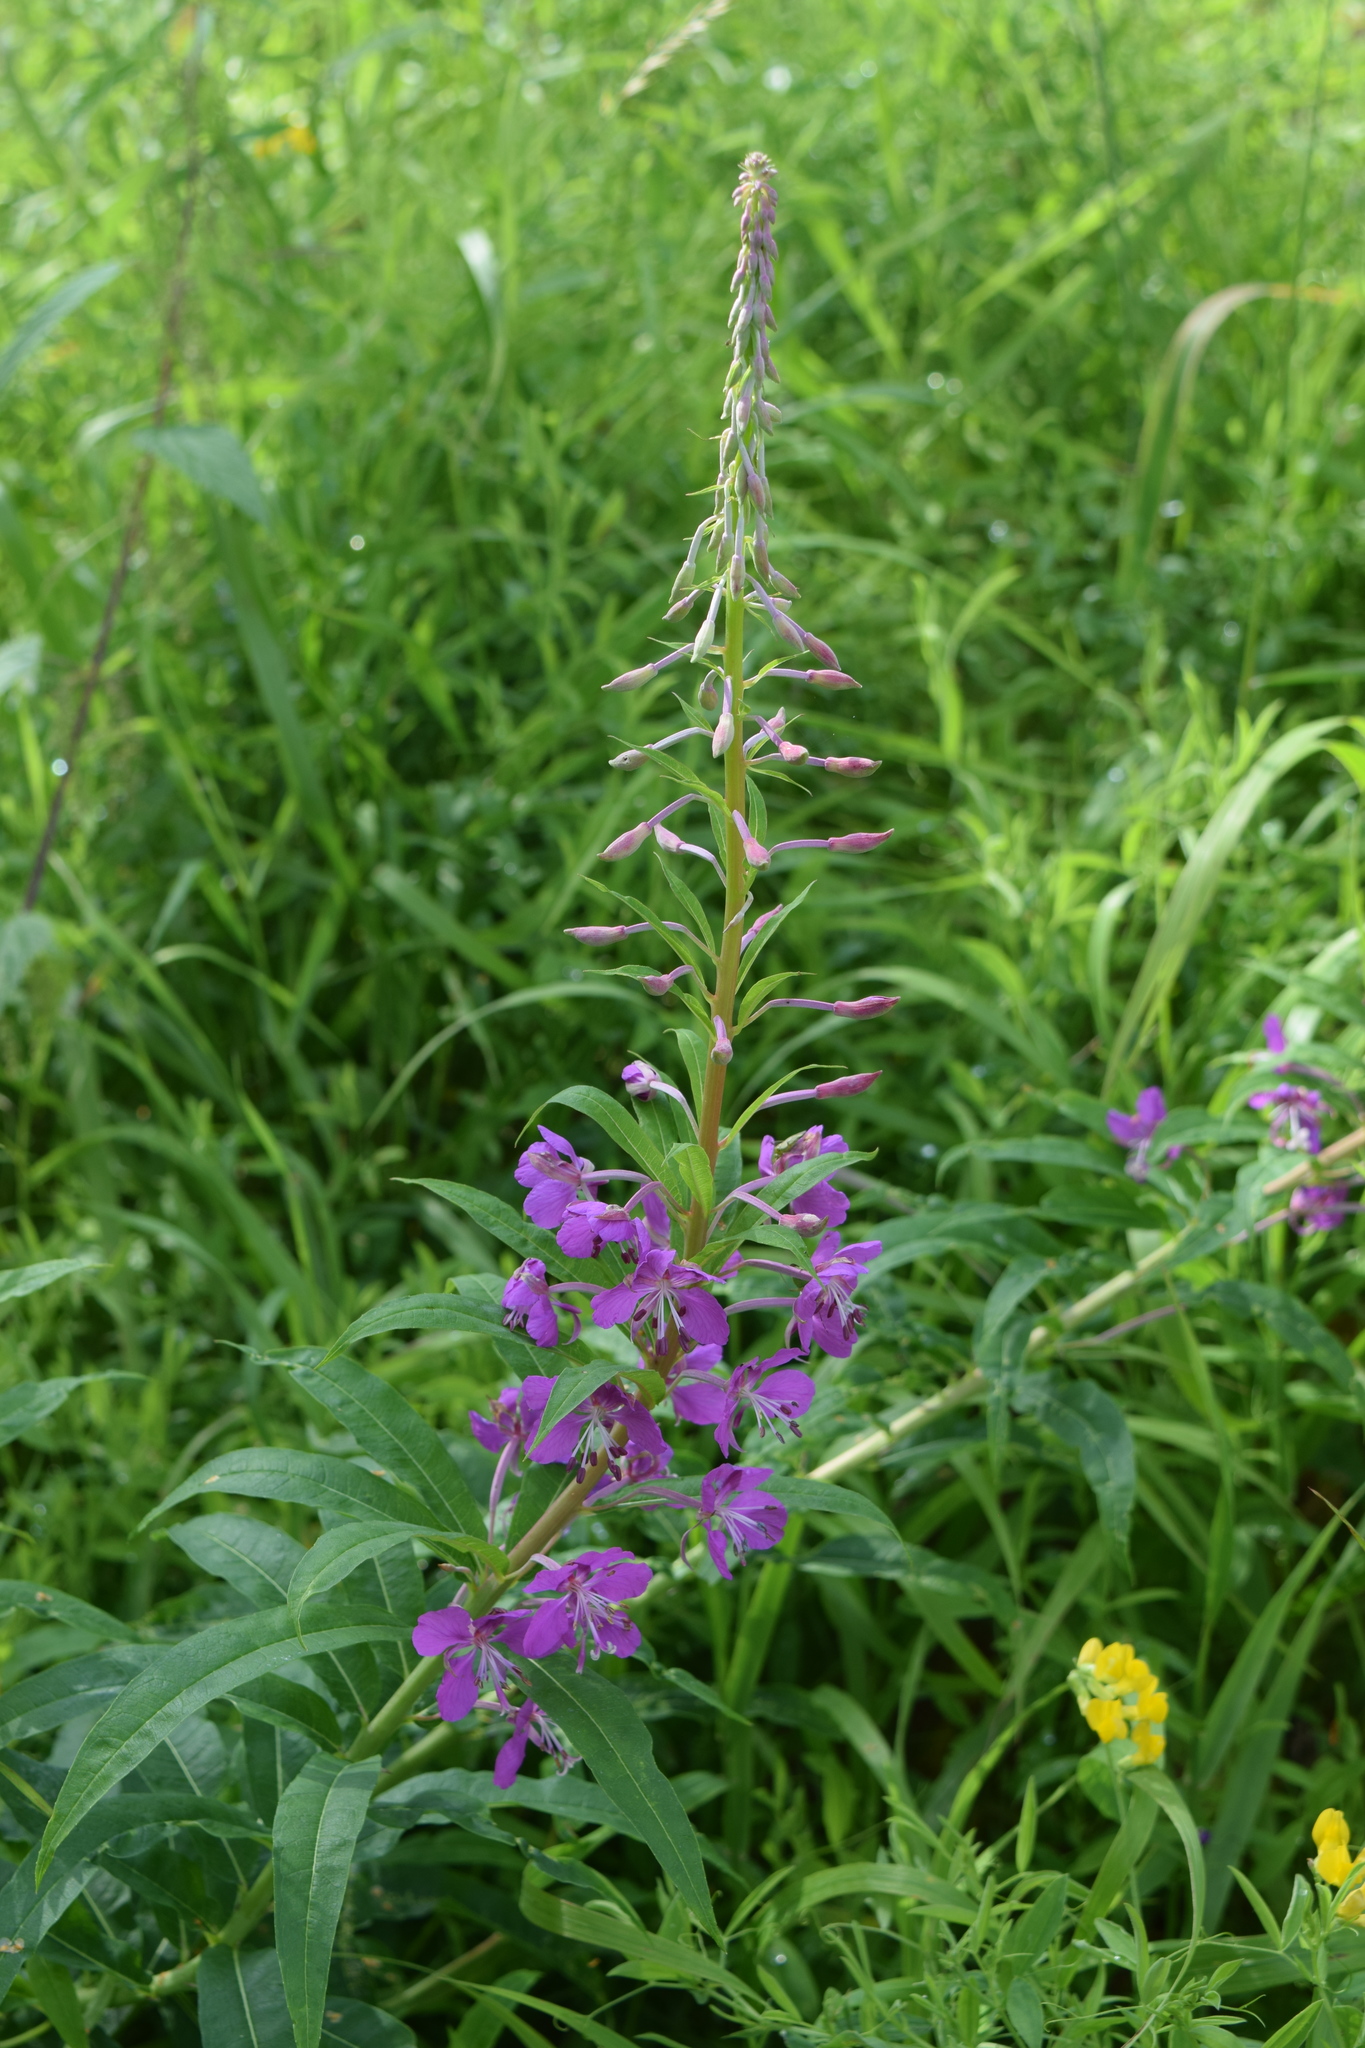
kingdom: Plantae
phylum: Tracheophyta
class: Magnoliopsida
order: Myrtales
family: Onagraceae
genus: Chamaenerion
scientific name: Chamaenerion angustifolium
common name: Fireweed
